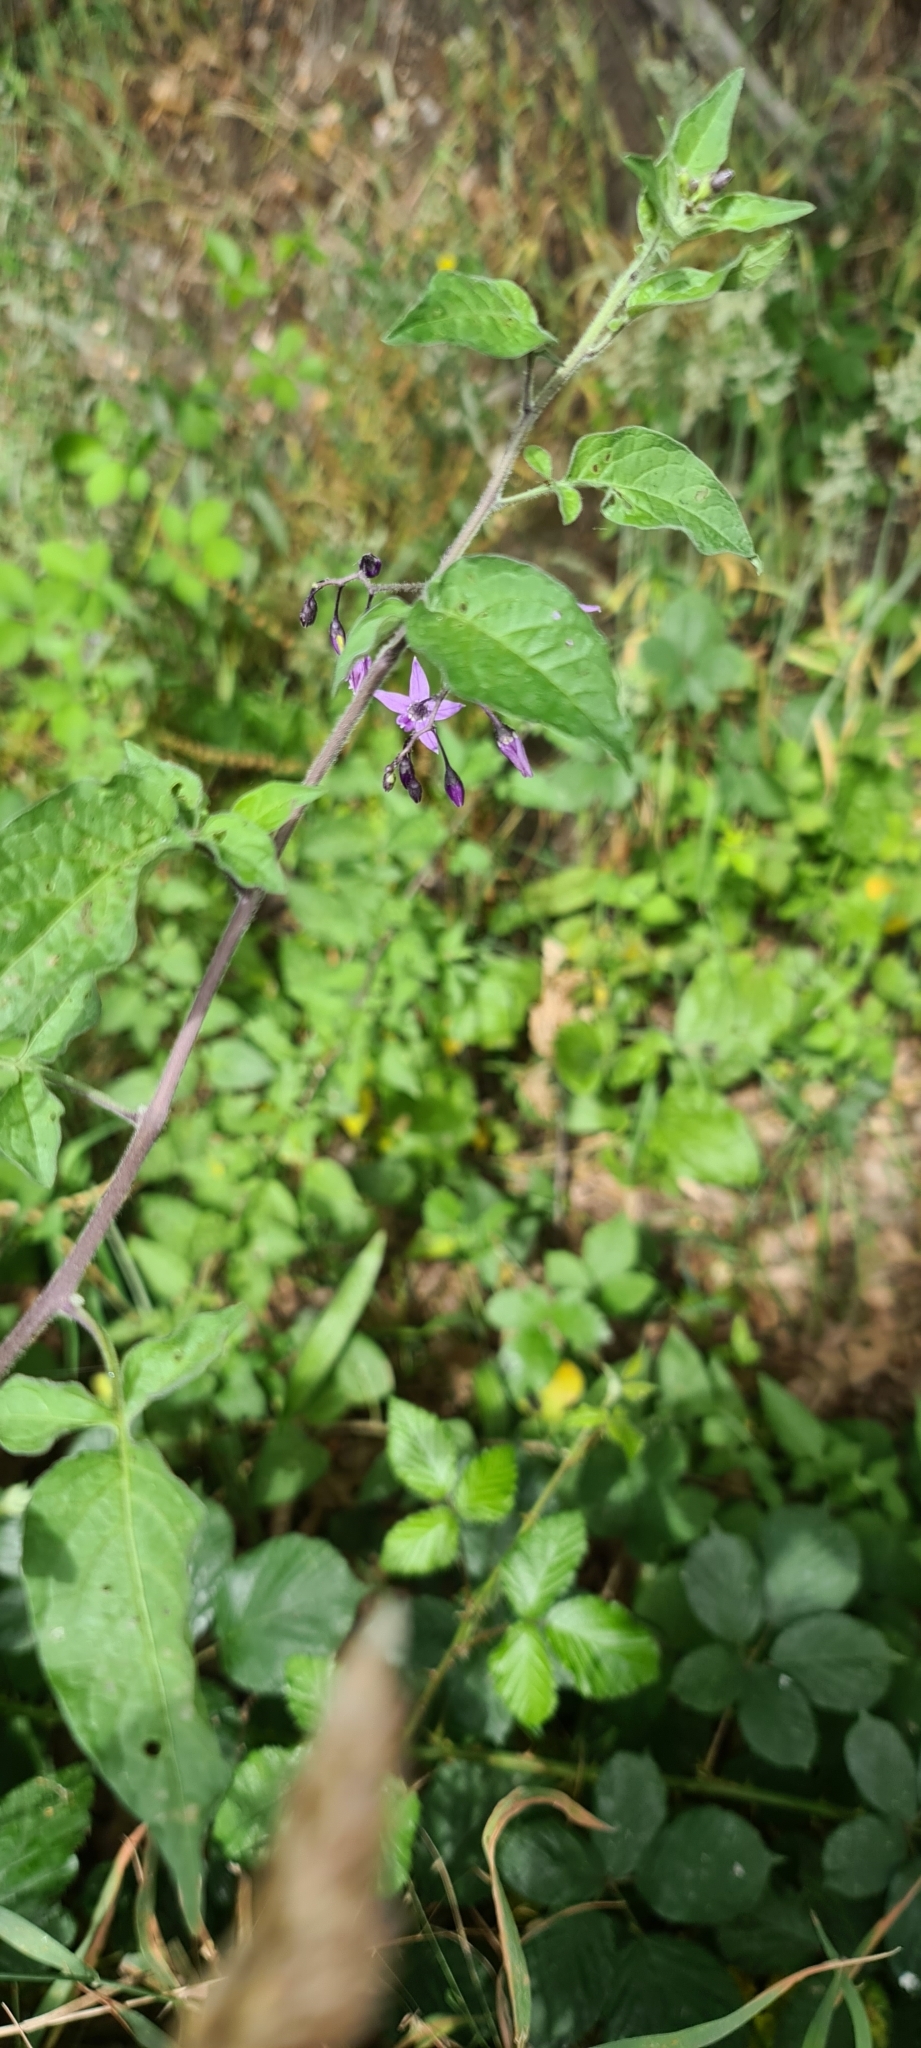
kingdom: Plantae
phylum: Tracheophyta
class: Magnoliopsida
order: Solanales
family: Solanaceae
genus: Solanum
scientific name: Solanum dulcamara
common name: Climbing nightshade
